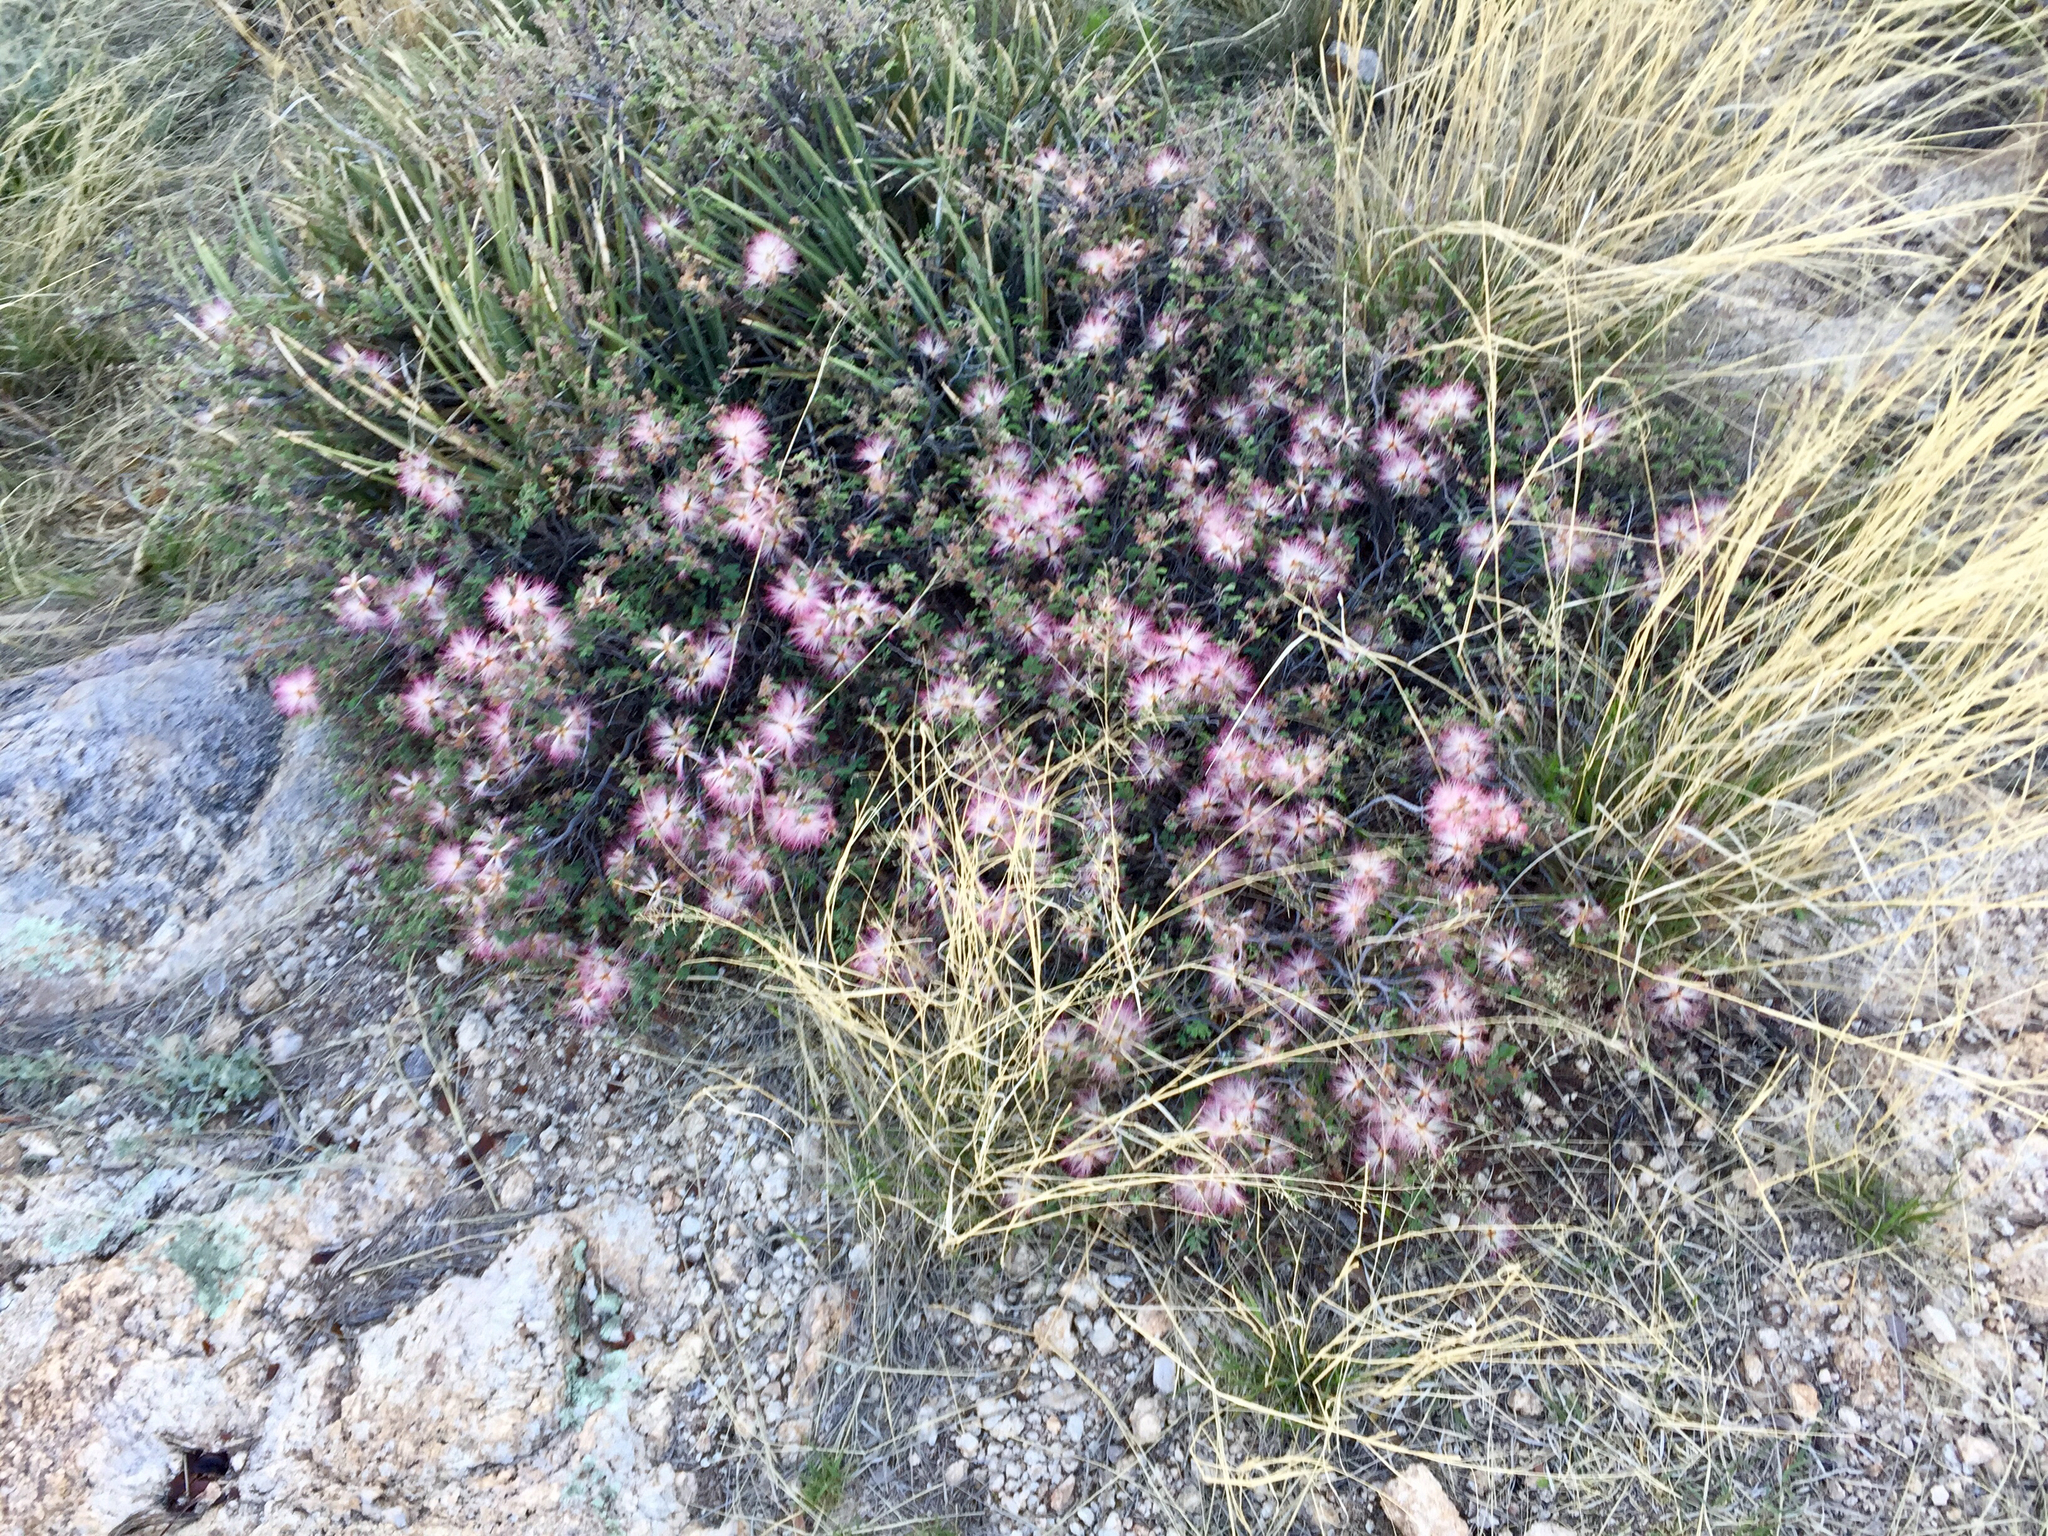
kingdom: Plantae
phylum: Tracheophyta
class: Magnoliopsida
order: Fabales
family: Fabaceae
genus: Calliandra
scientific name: Calliandra eriophylla
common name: Fairy-duster
